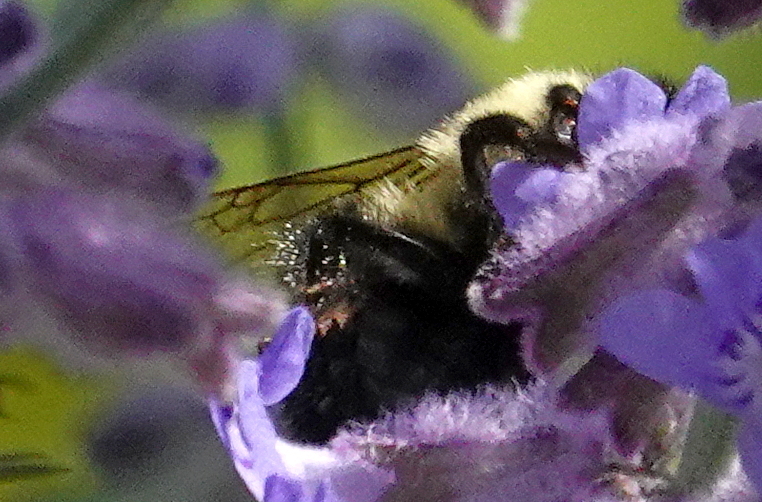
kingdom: Animalia
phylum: Arthropoda
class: Insecta
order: Hymenoptera
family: Apidae
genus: Bombus
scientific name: Bombus impatiens
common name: Common eastern bumble bee
